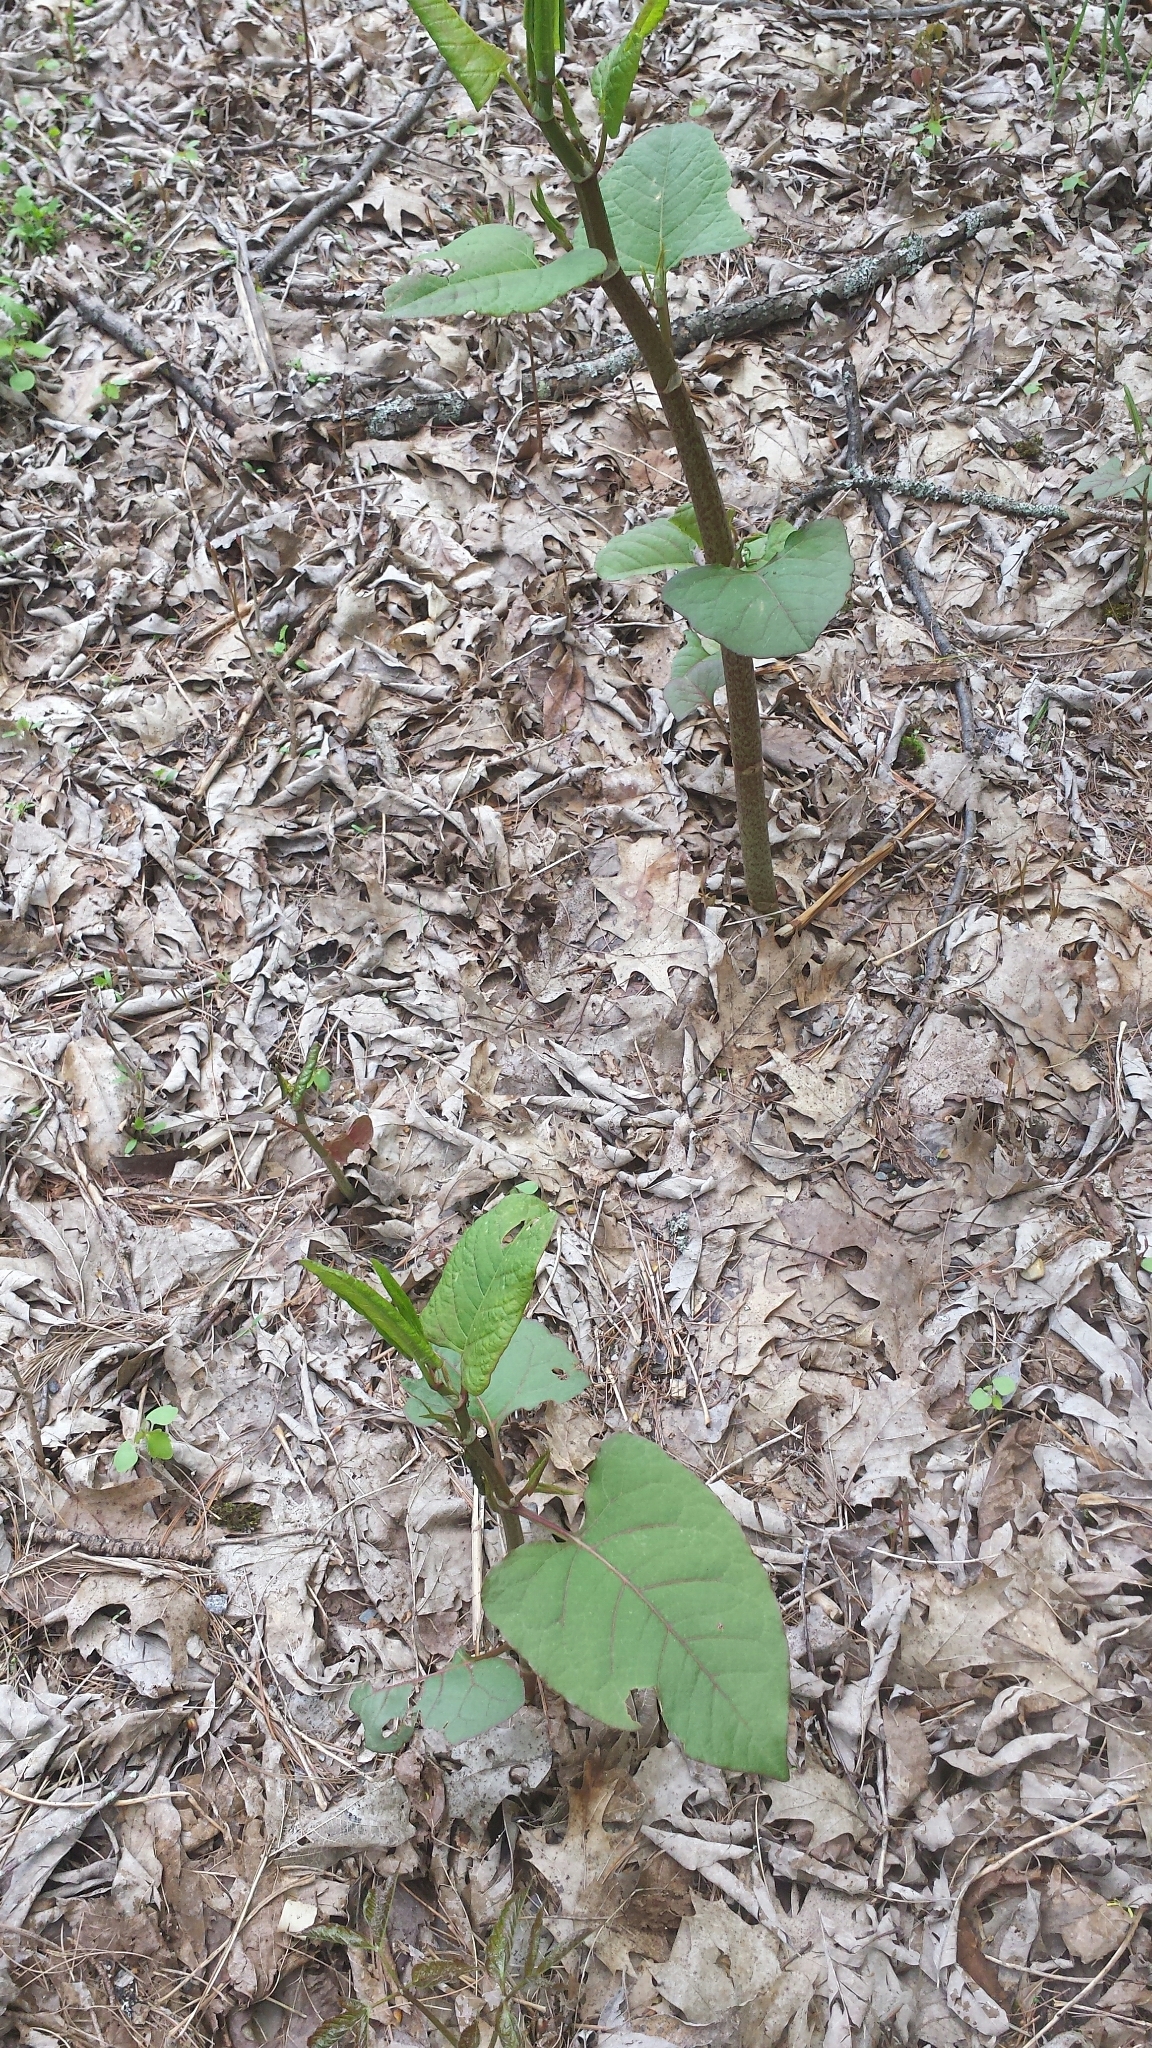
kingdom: Plantae
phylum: Tracheophyta
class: Magnoliopsida
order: Caryophyllales
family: Polygonaceae
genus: Reynoutria
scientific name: Reynoutria japonica
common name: Japanese knotweed
